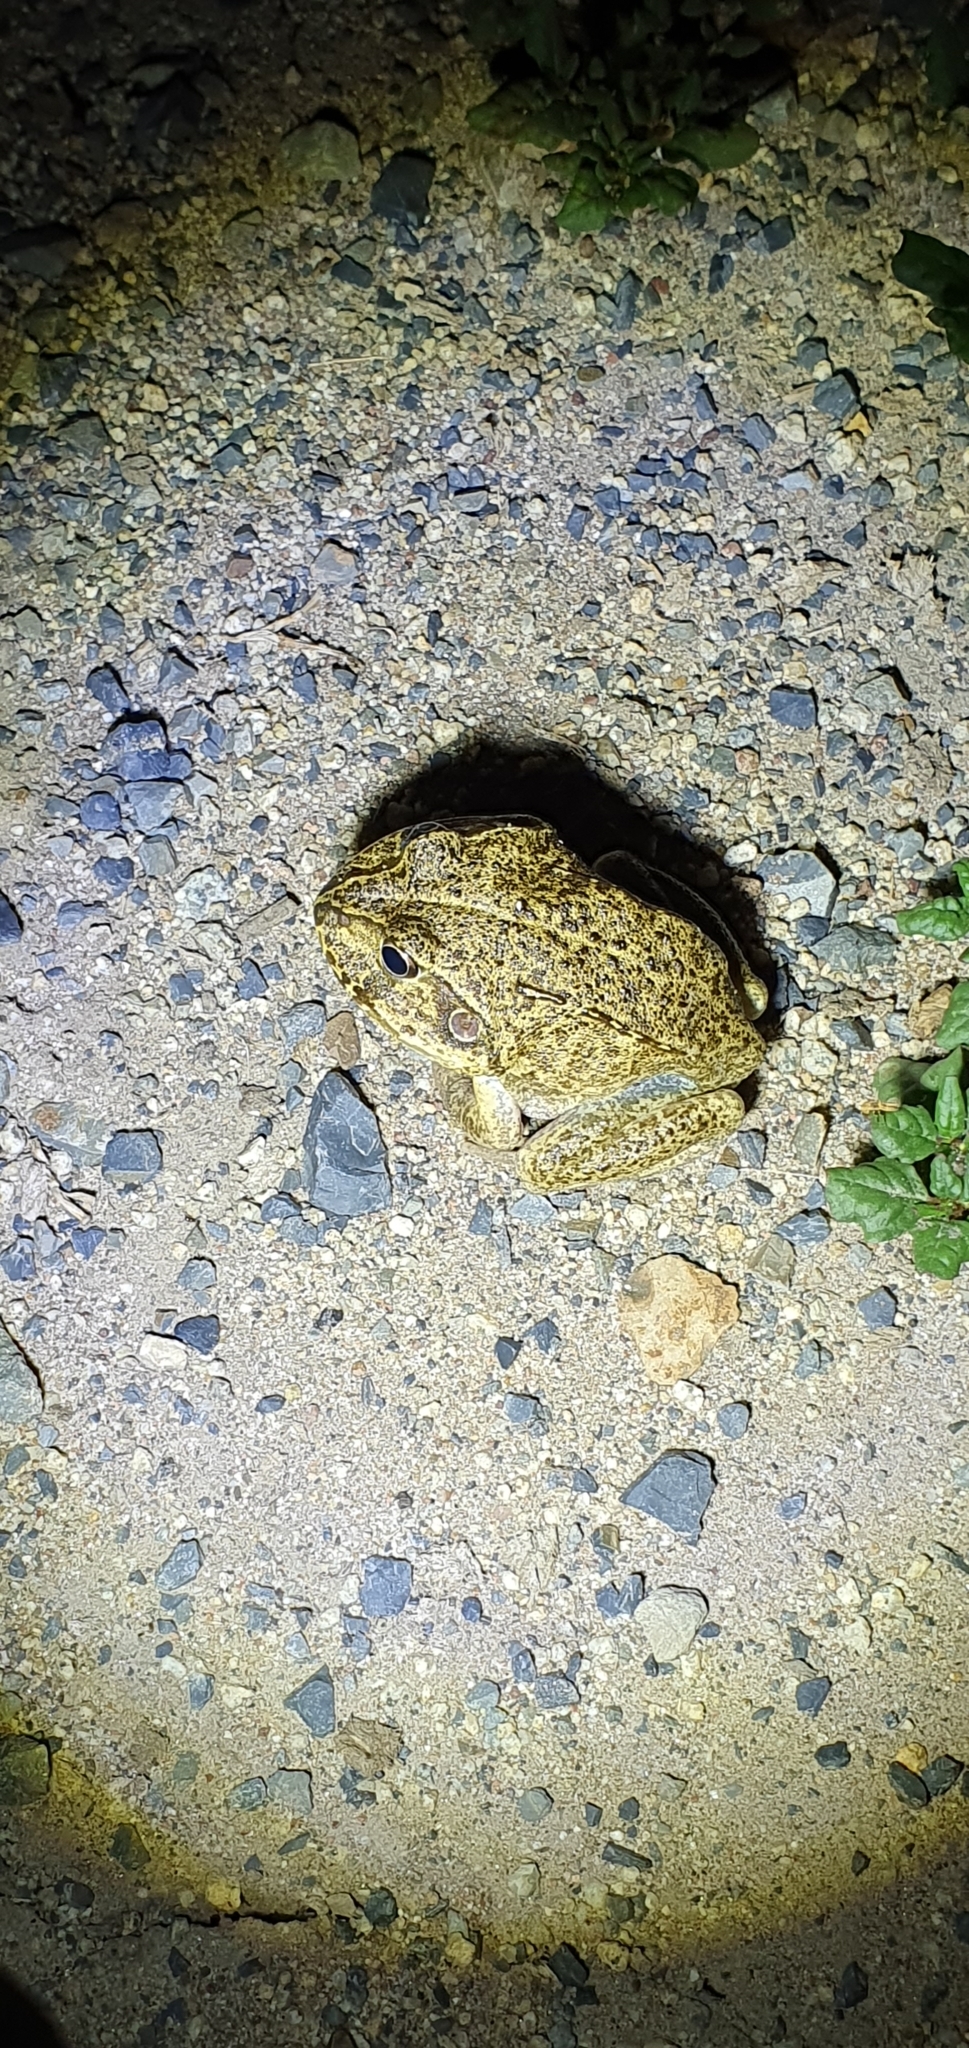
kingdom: Animalia
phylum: Chordata
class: Amphibia
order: Anura
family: Pelodryadidae
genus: Ranoidea
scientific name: Ranoidea novaehollandiae
